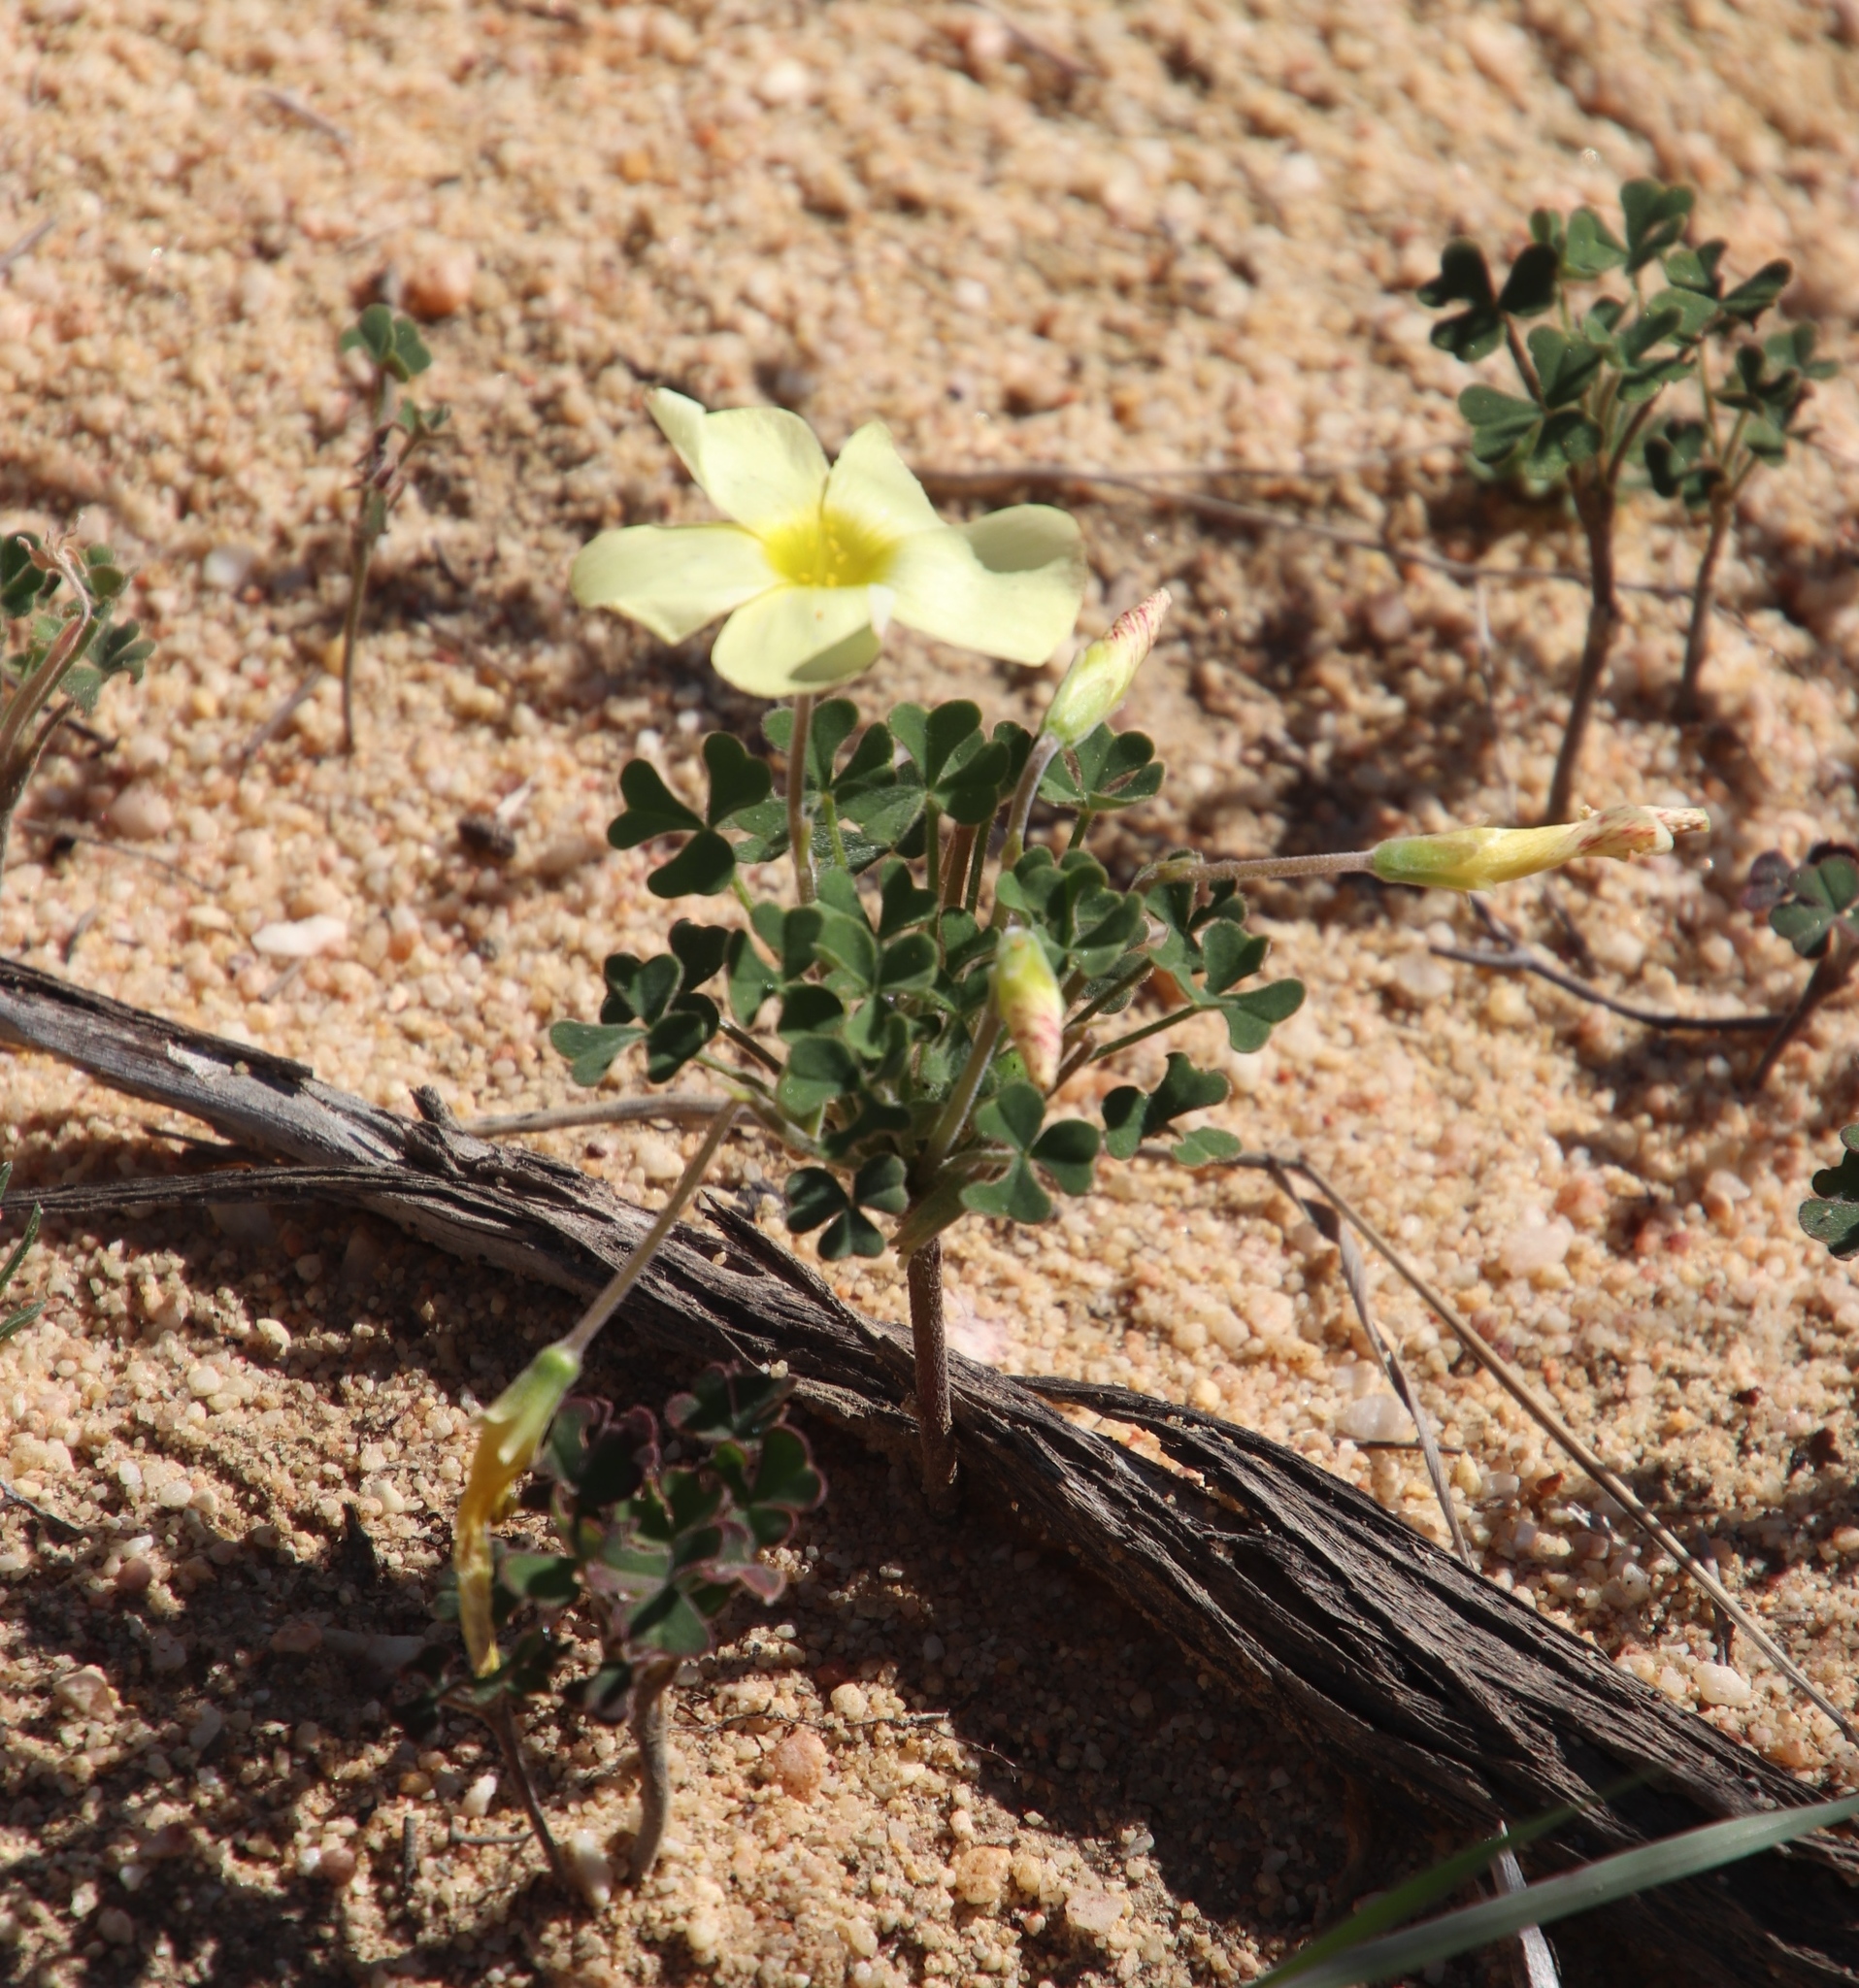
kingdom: Plantae
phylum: Tracheophyta
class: Magnoliopsida
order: Oxalidales
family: Oxalidaceae
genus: Oxalis
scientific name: Oxalis obtusa
